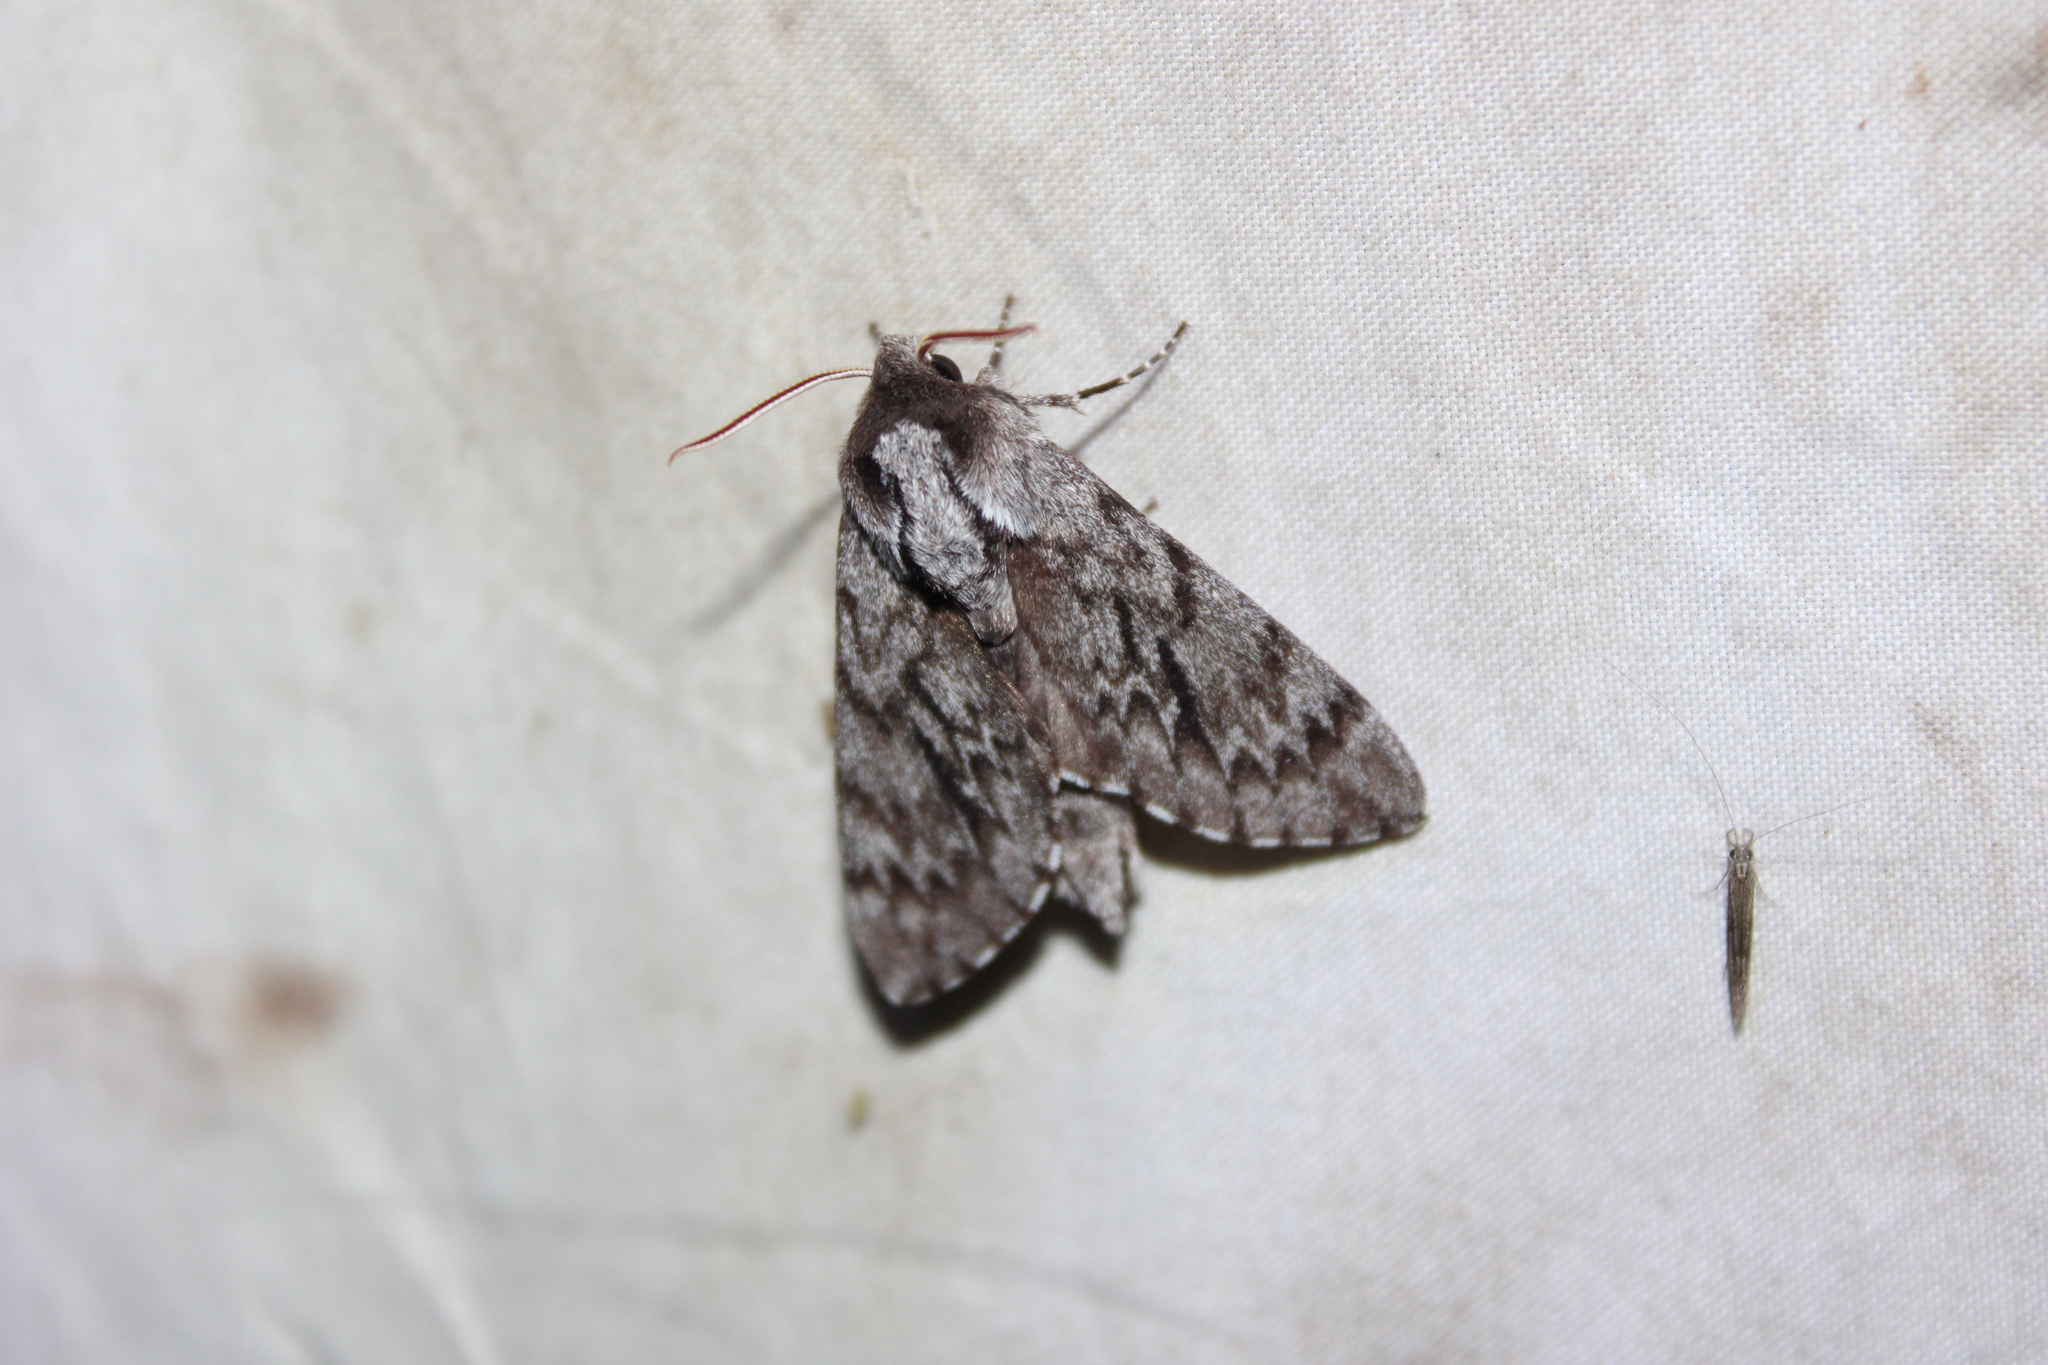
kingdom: Animalia
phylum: Arthropoda
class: Insecta
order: Lepidoptera
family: Sphingidae
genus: Lapara
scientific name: Lapara bombycoides
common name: Northern pine sphinx
